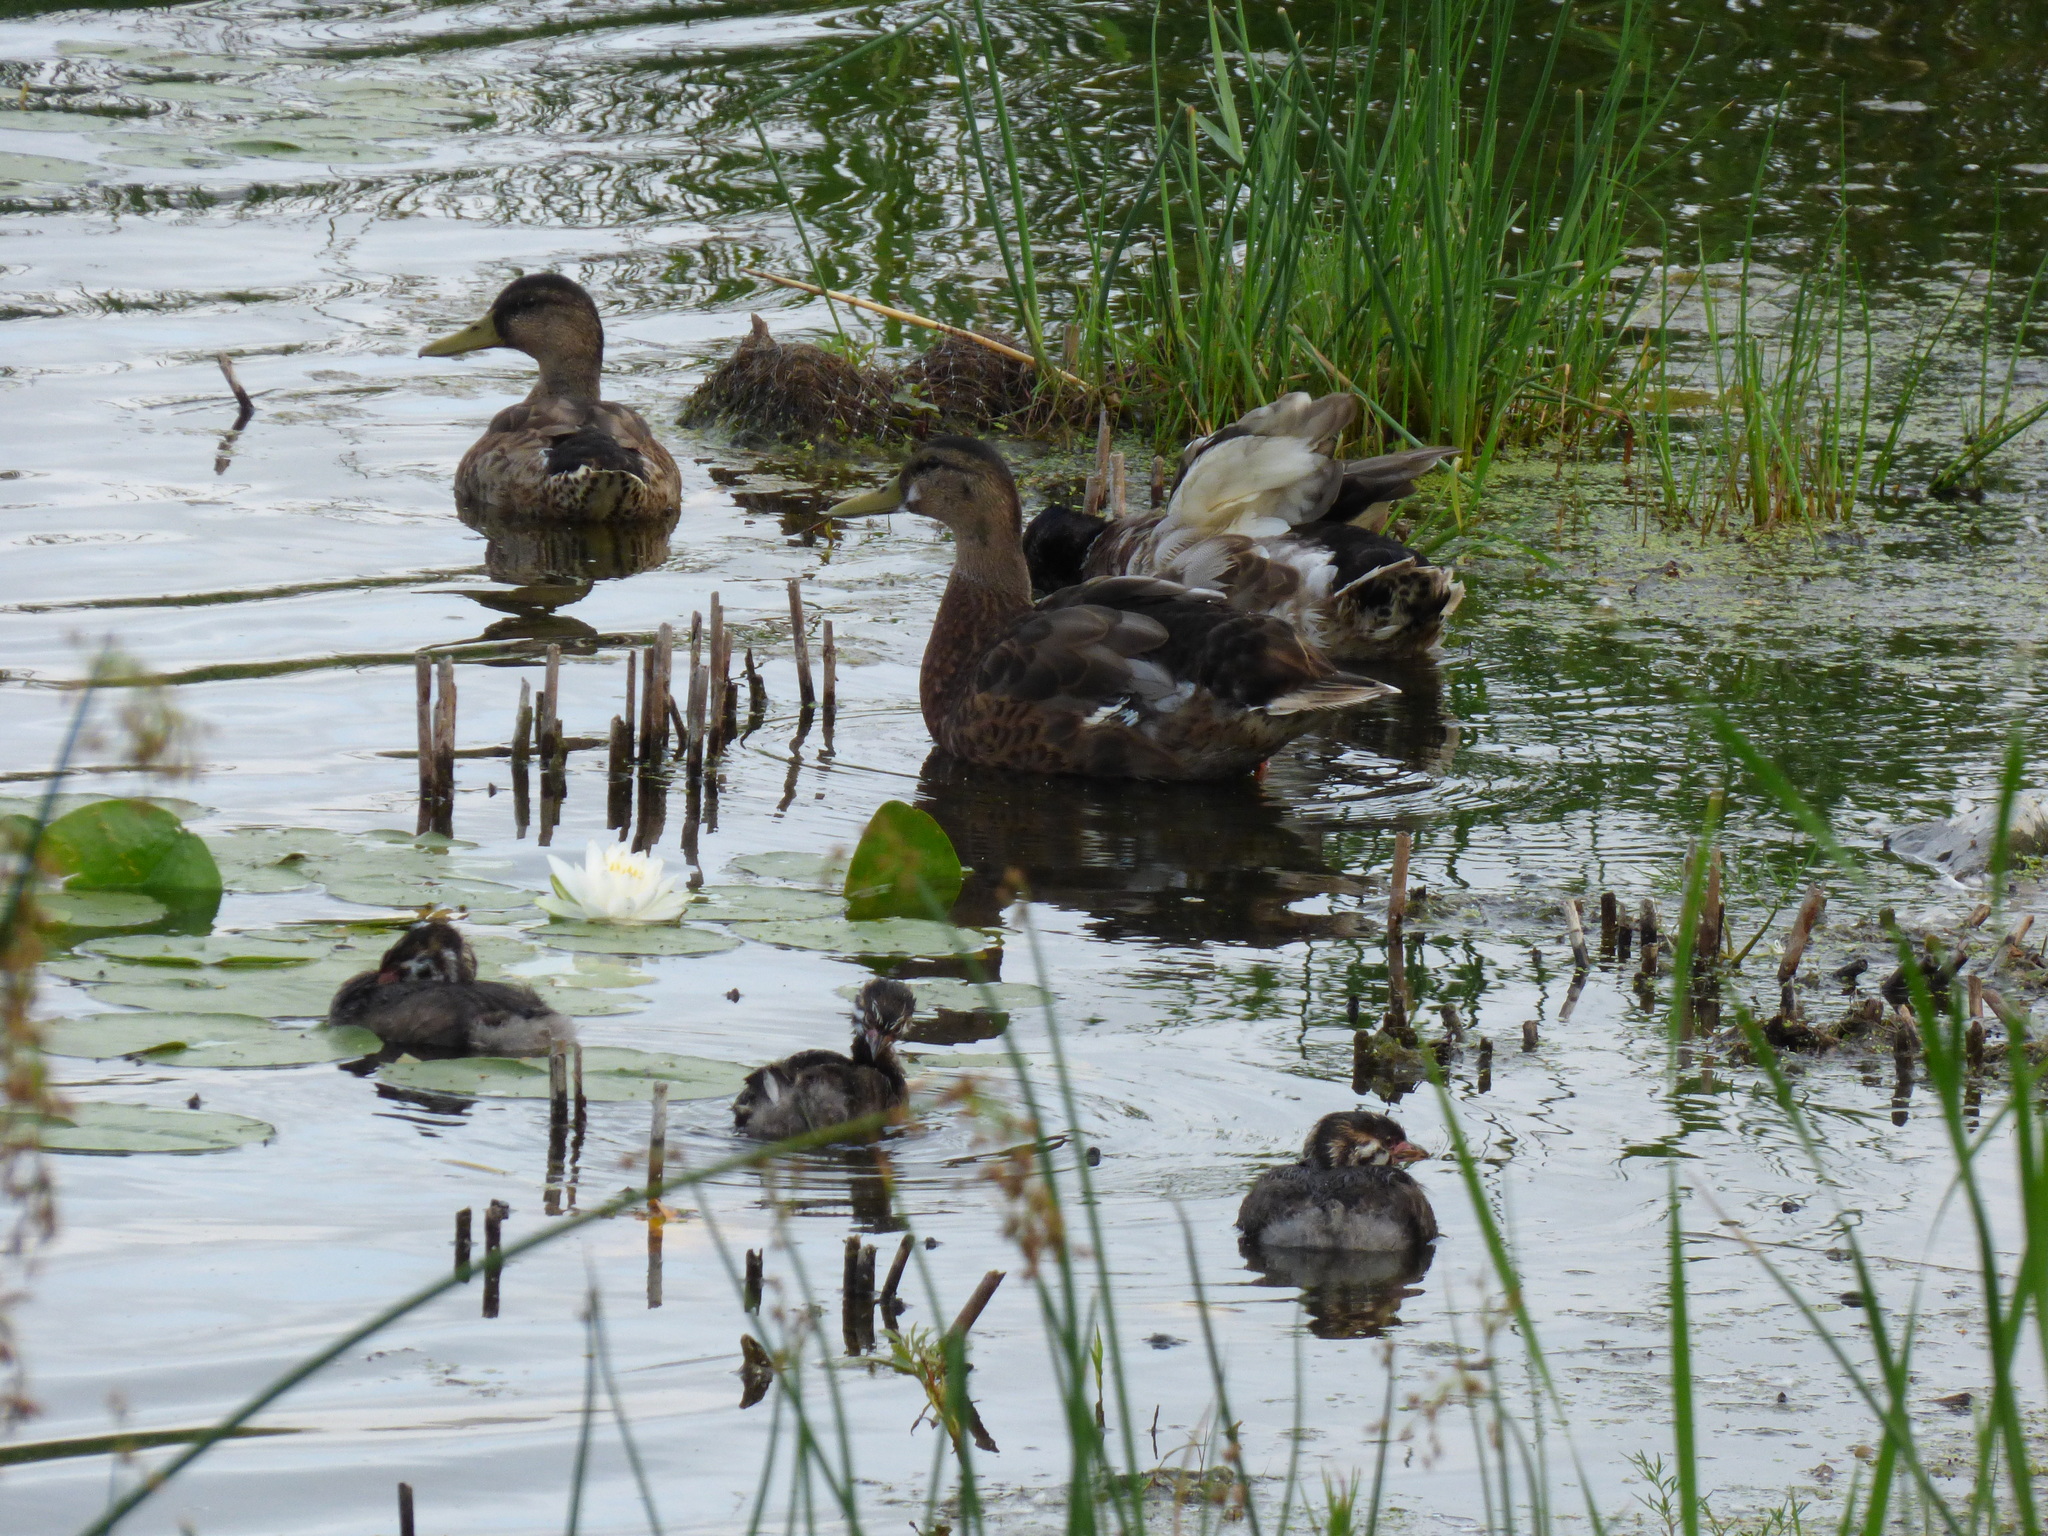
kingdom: Animalia
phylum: Chordata
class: Aves
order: Anseriformes
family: Anatidae
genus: Anas
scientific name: Anas platyrhynchos
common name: Mallard
